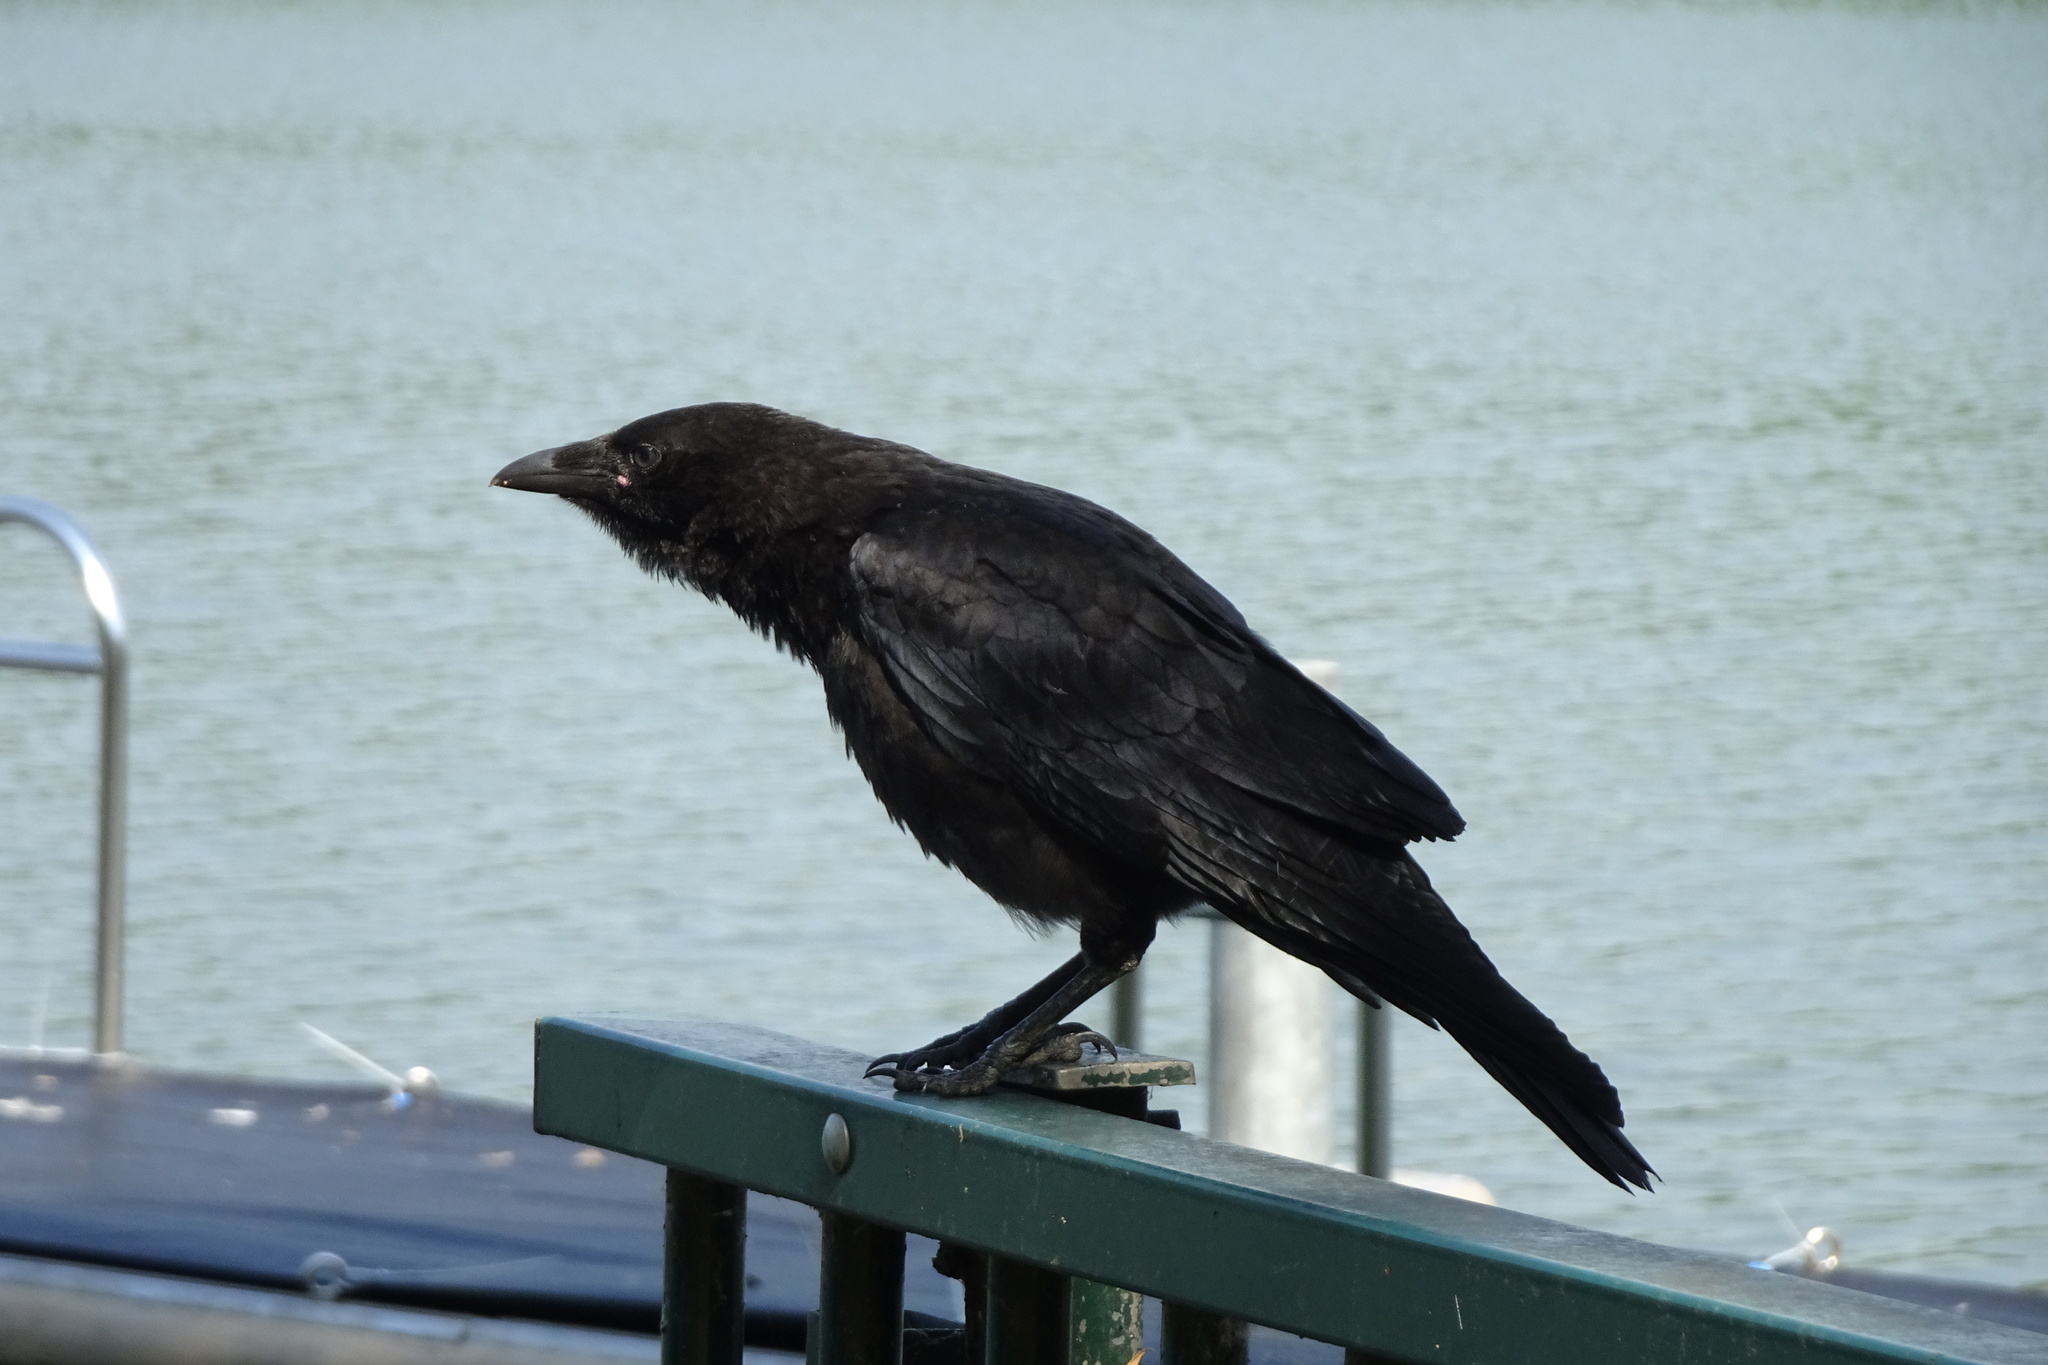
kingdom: Animalia
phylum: Chordata
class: Aves
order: Passeriformes
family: Corvidae
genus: Corvus
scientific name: Corvus corone
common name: Carrion crow
